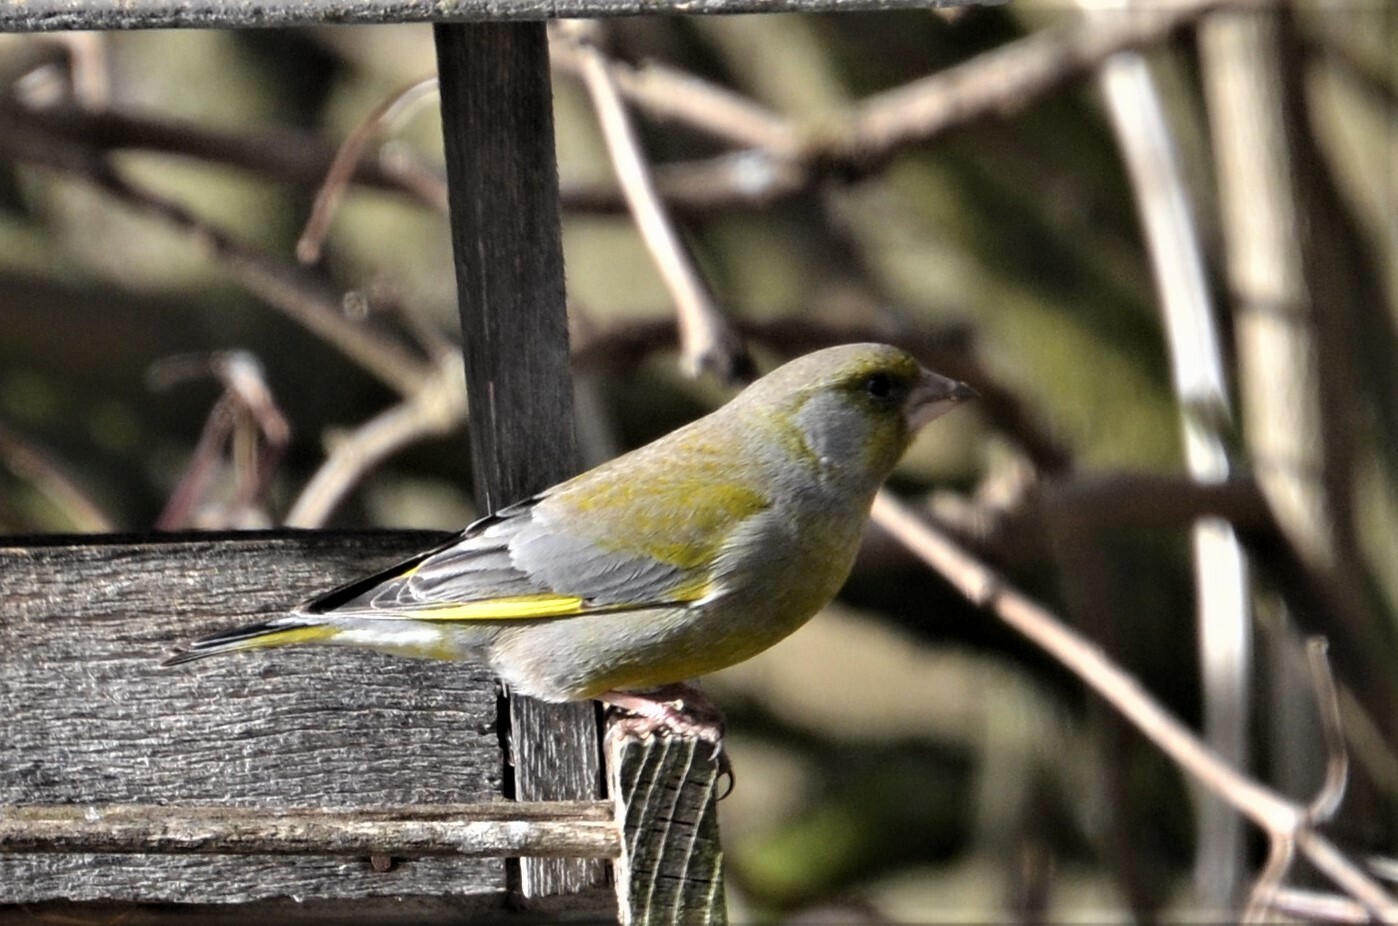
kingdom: Plantae
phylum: Tracheophyta
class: Liliopsida
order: Poales
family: Poaceae
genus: Chloris
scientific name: Chloris chloris
